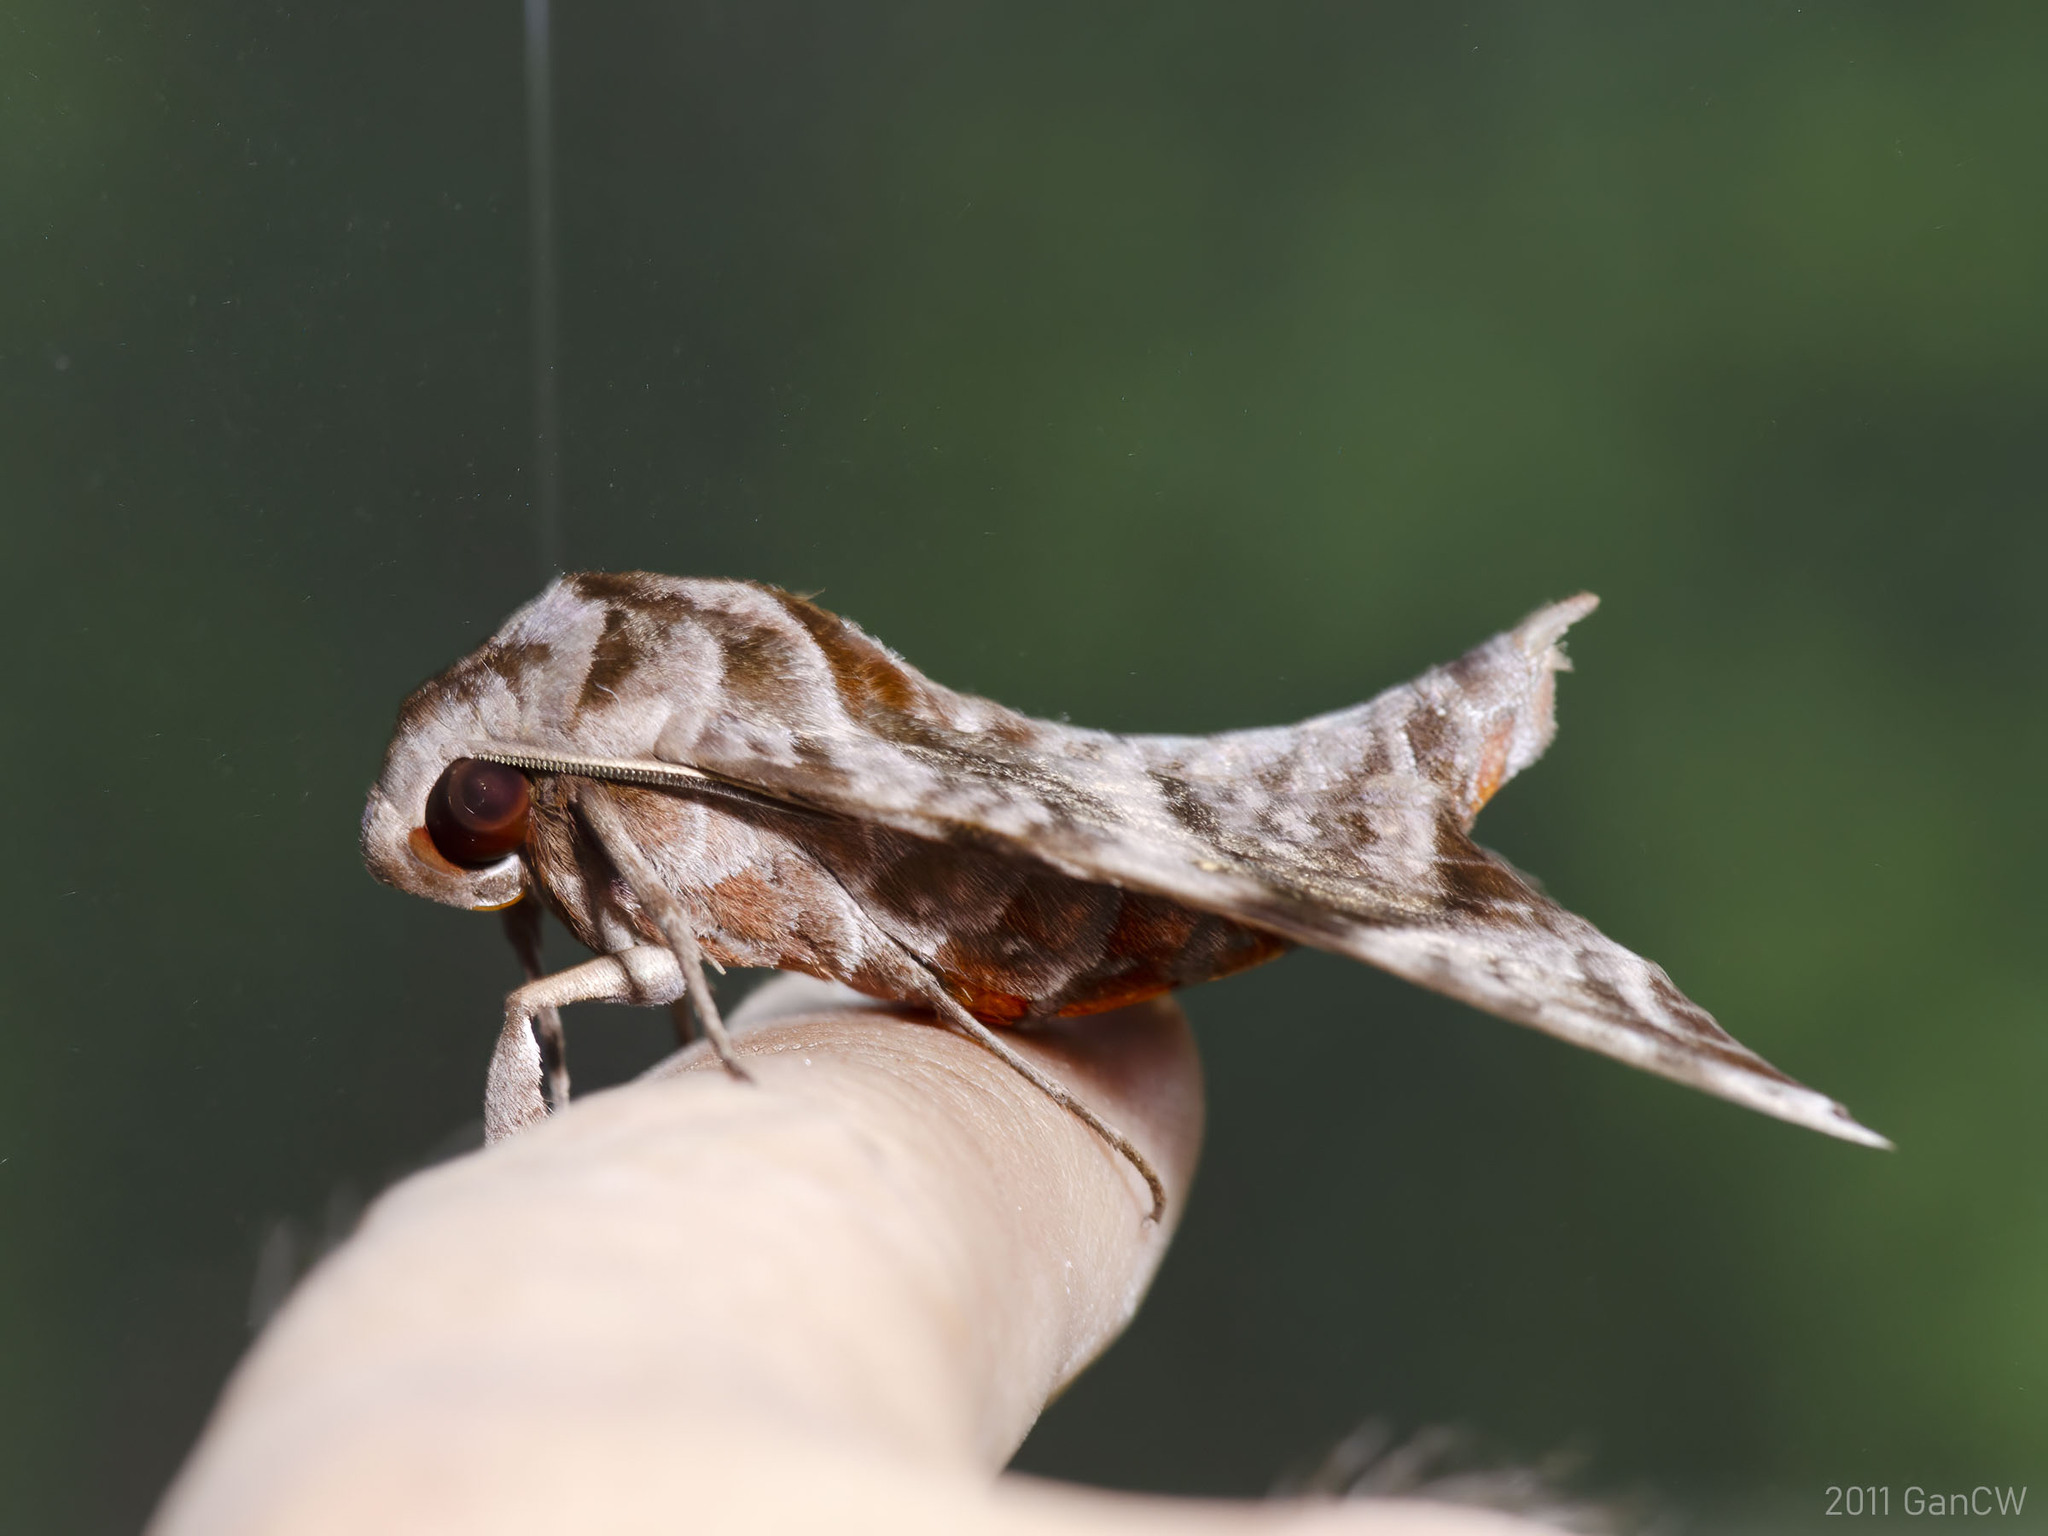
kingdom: Animalia
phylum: Arthropoda
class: Insecta
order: Lepidoptera
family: Sphingidae
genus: Acosmeryx
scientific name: Acosmeryx anceus
